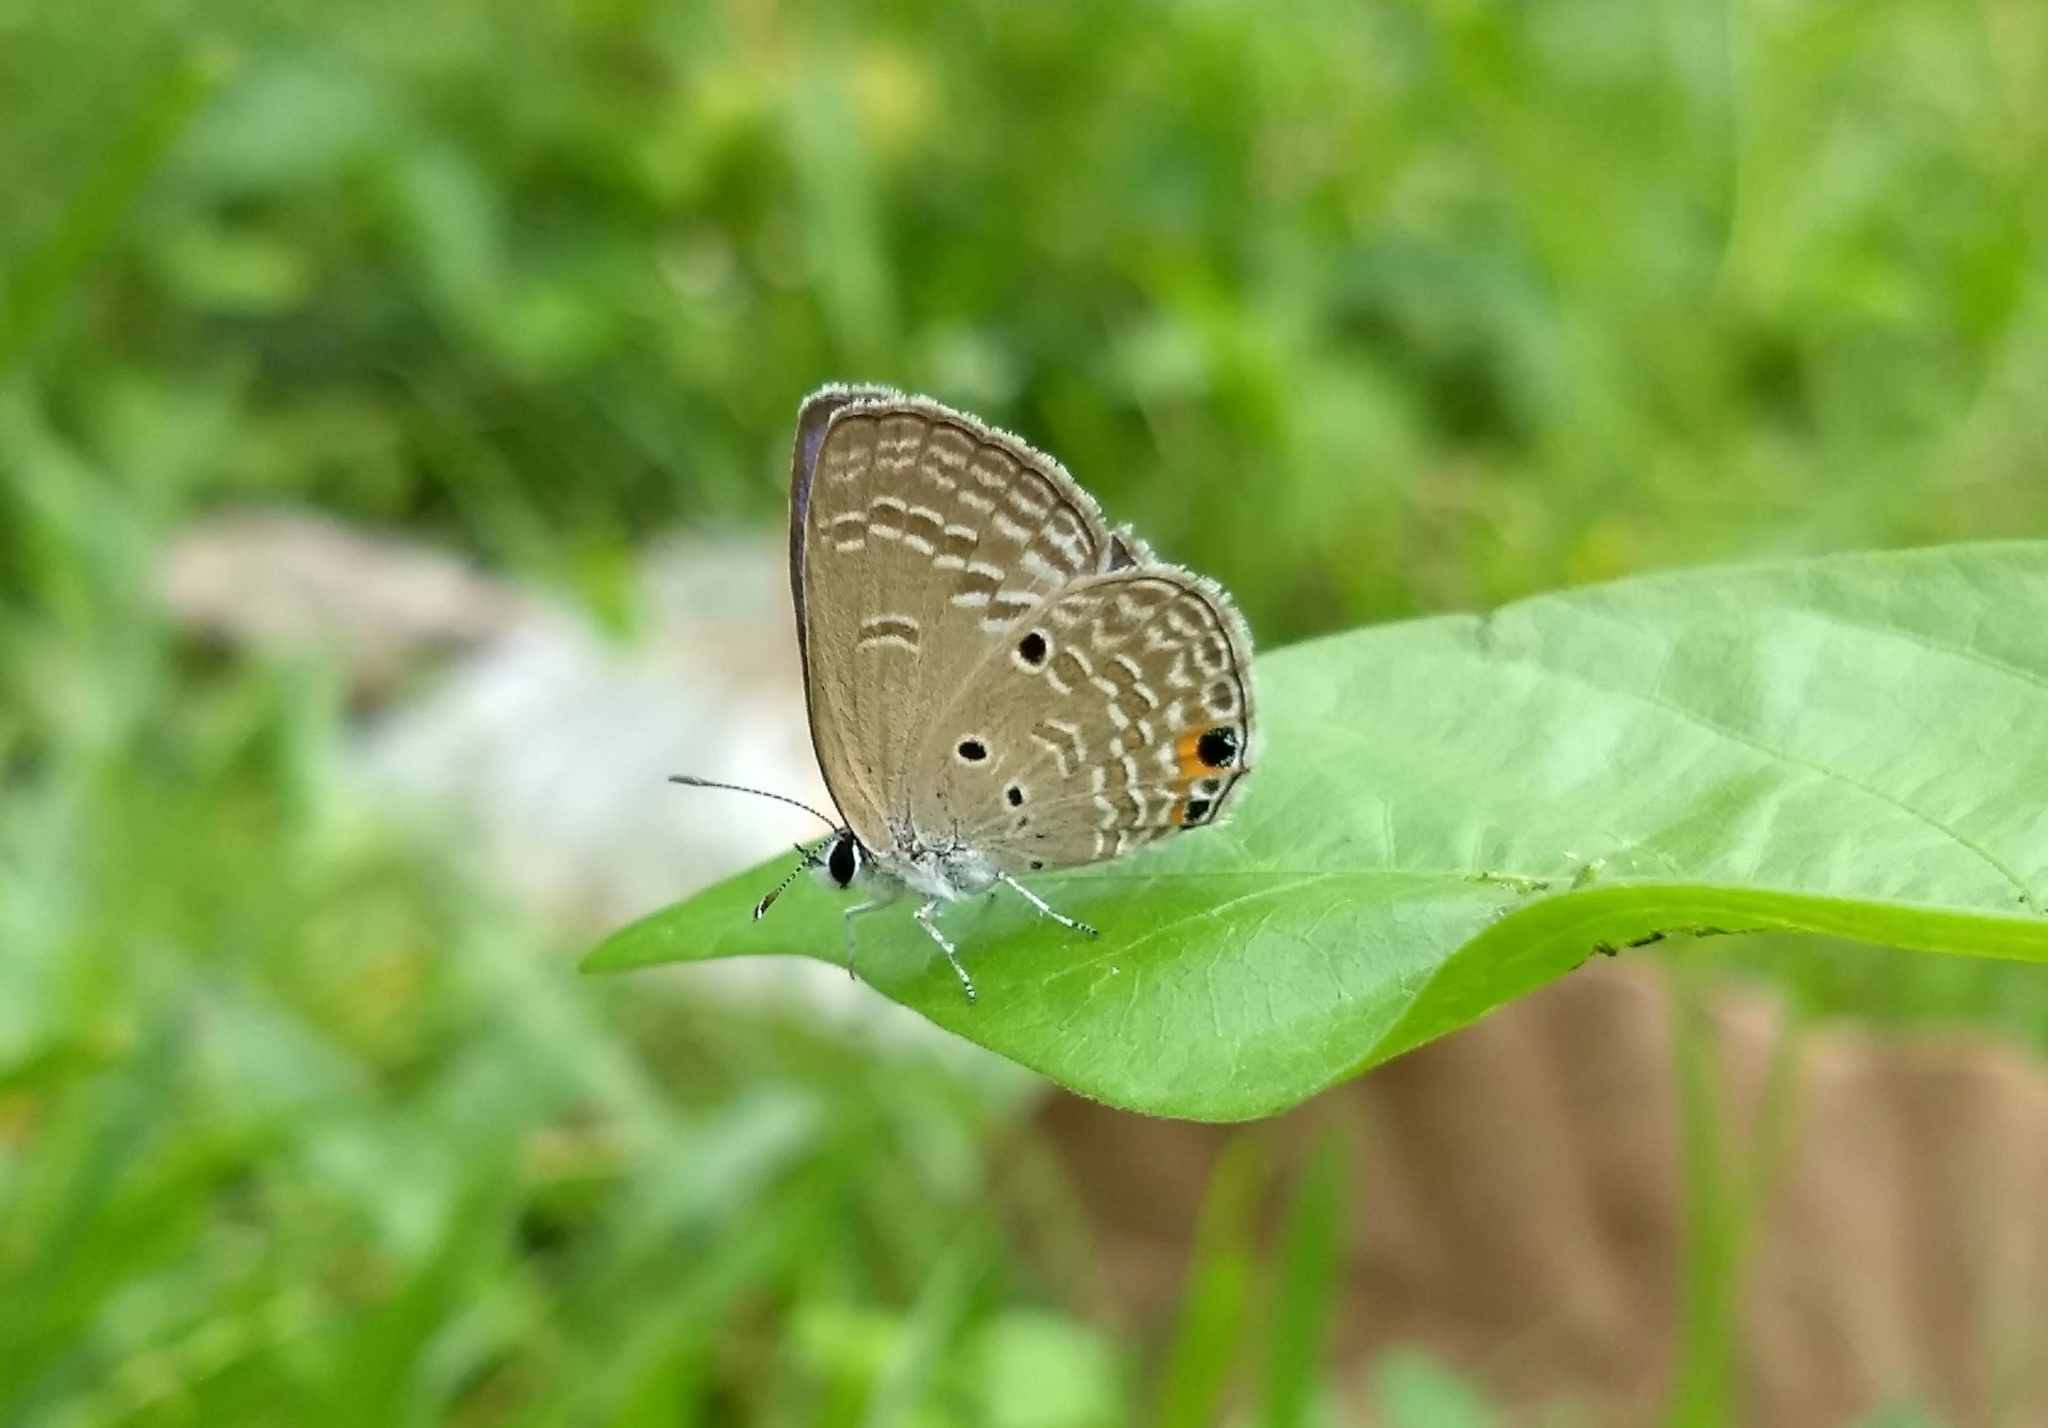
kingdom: Animalia
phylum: Arthropoda
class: Insecta
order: Lepidoptera
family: Lycaenidae
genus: Luthrodes
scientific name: Luthrodes pandava
